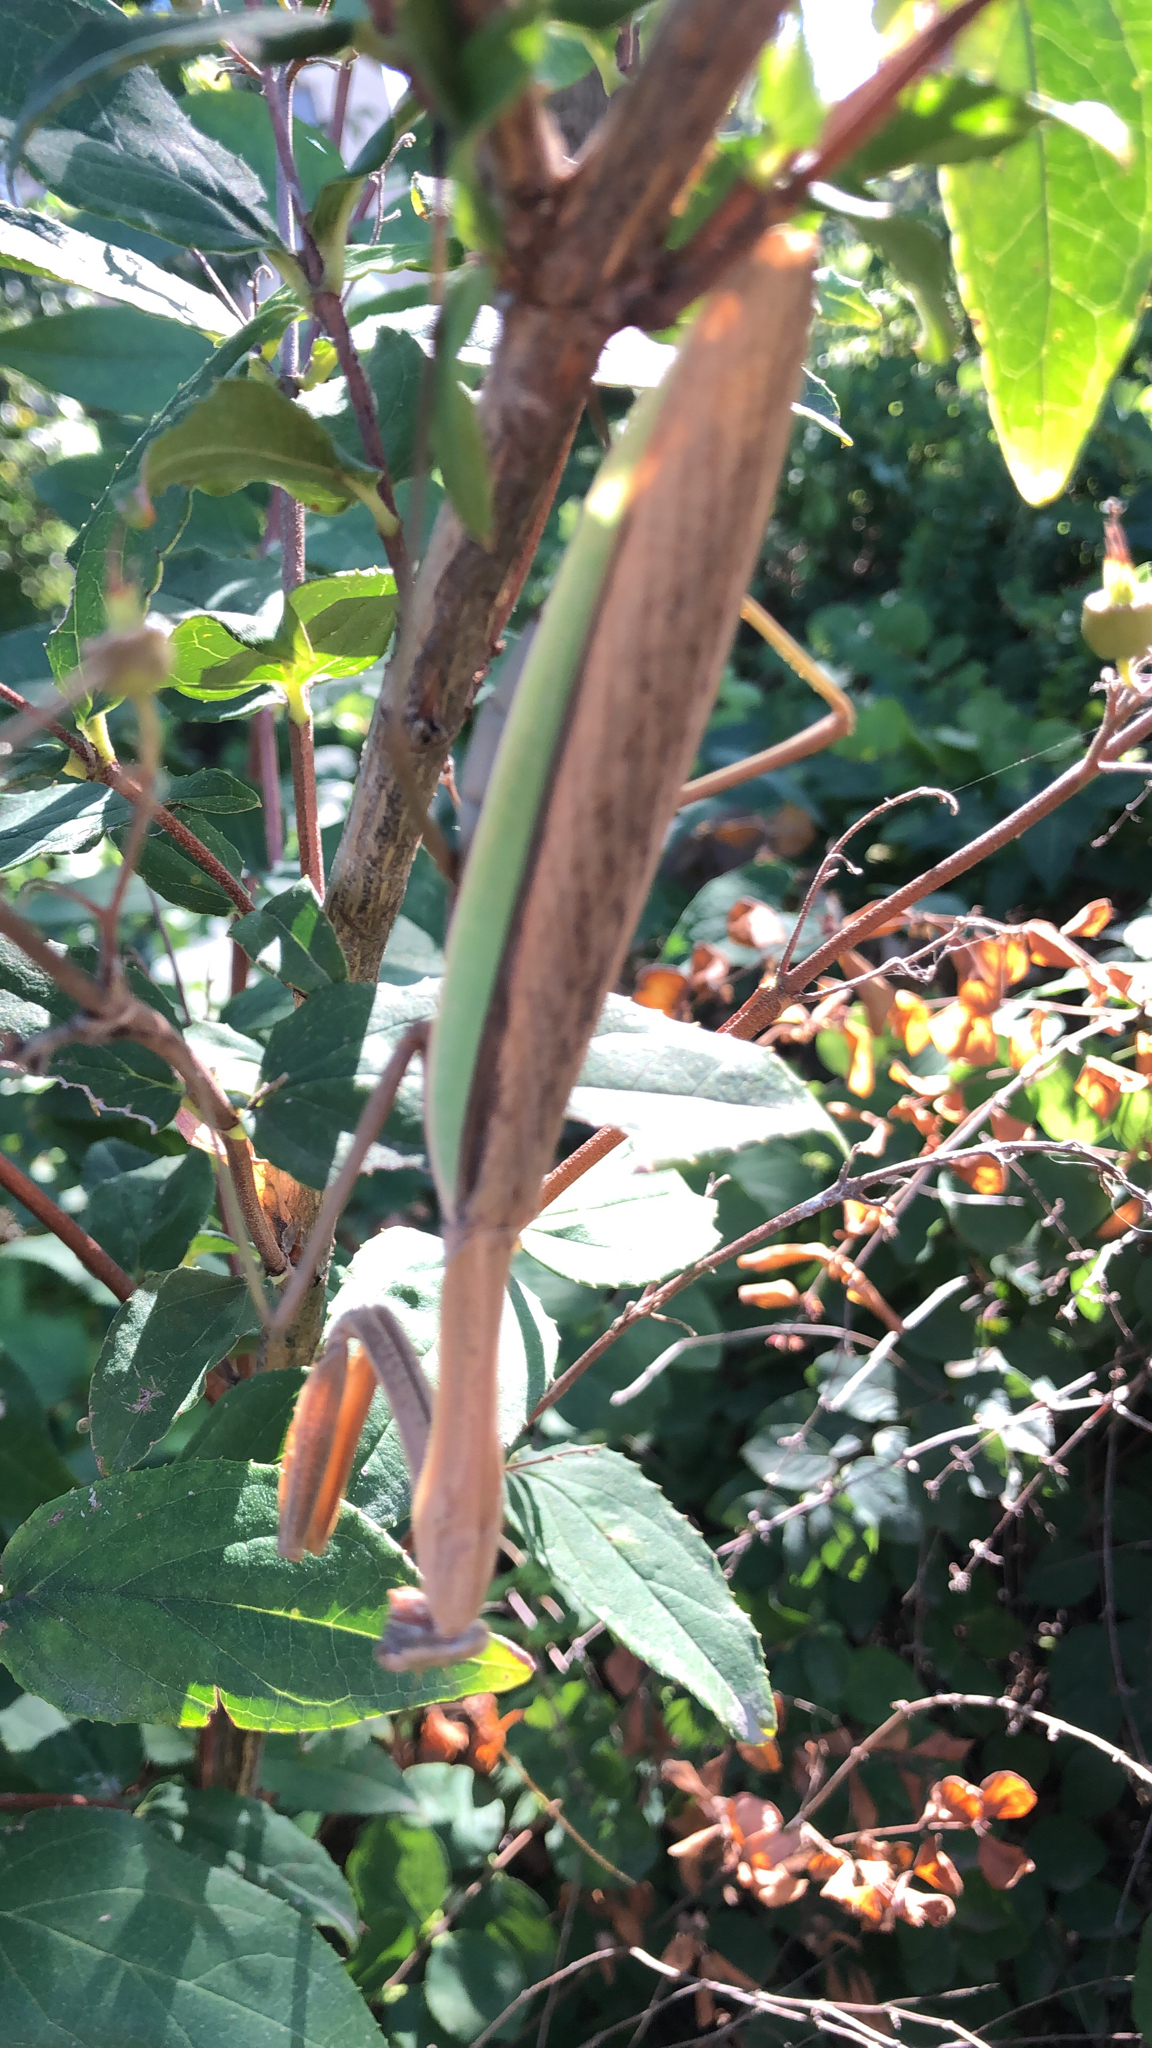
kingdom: Animalia
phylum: Arthropoda
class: Insecta
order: Mantodea
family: Mantidae
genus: Tenodera
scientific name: Tenodera sinensis
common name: Chinese mantis
